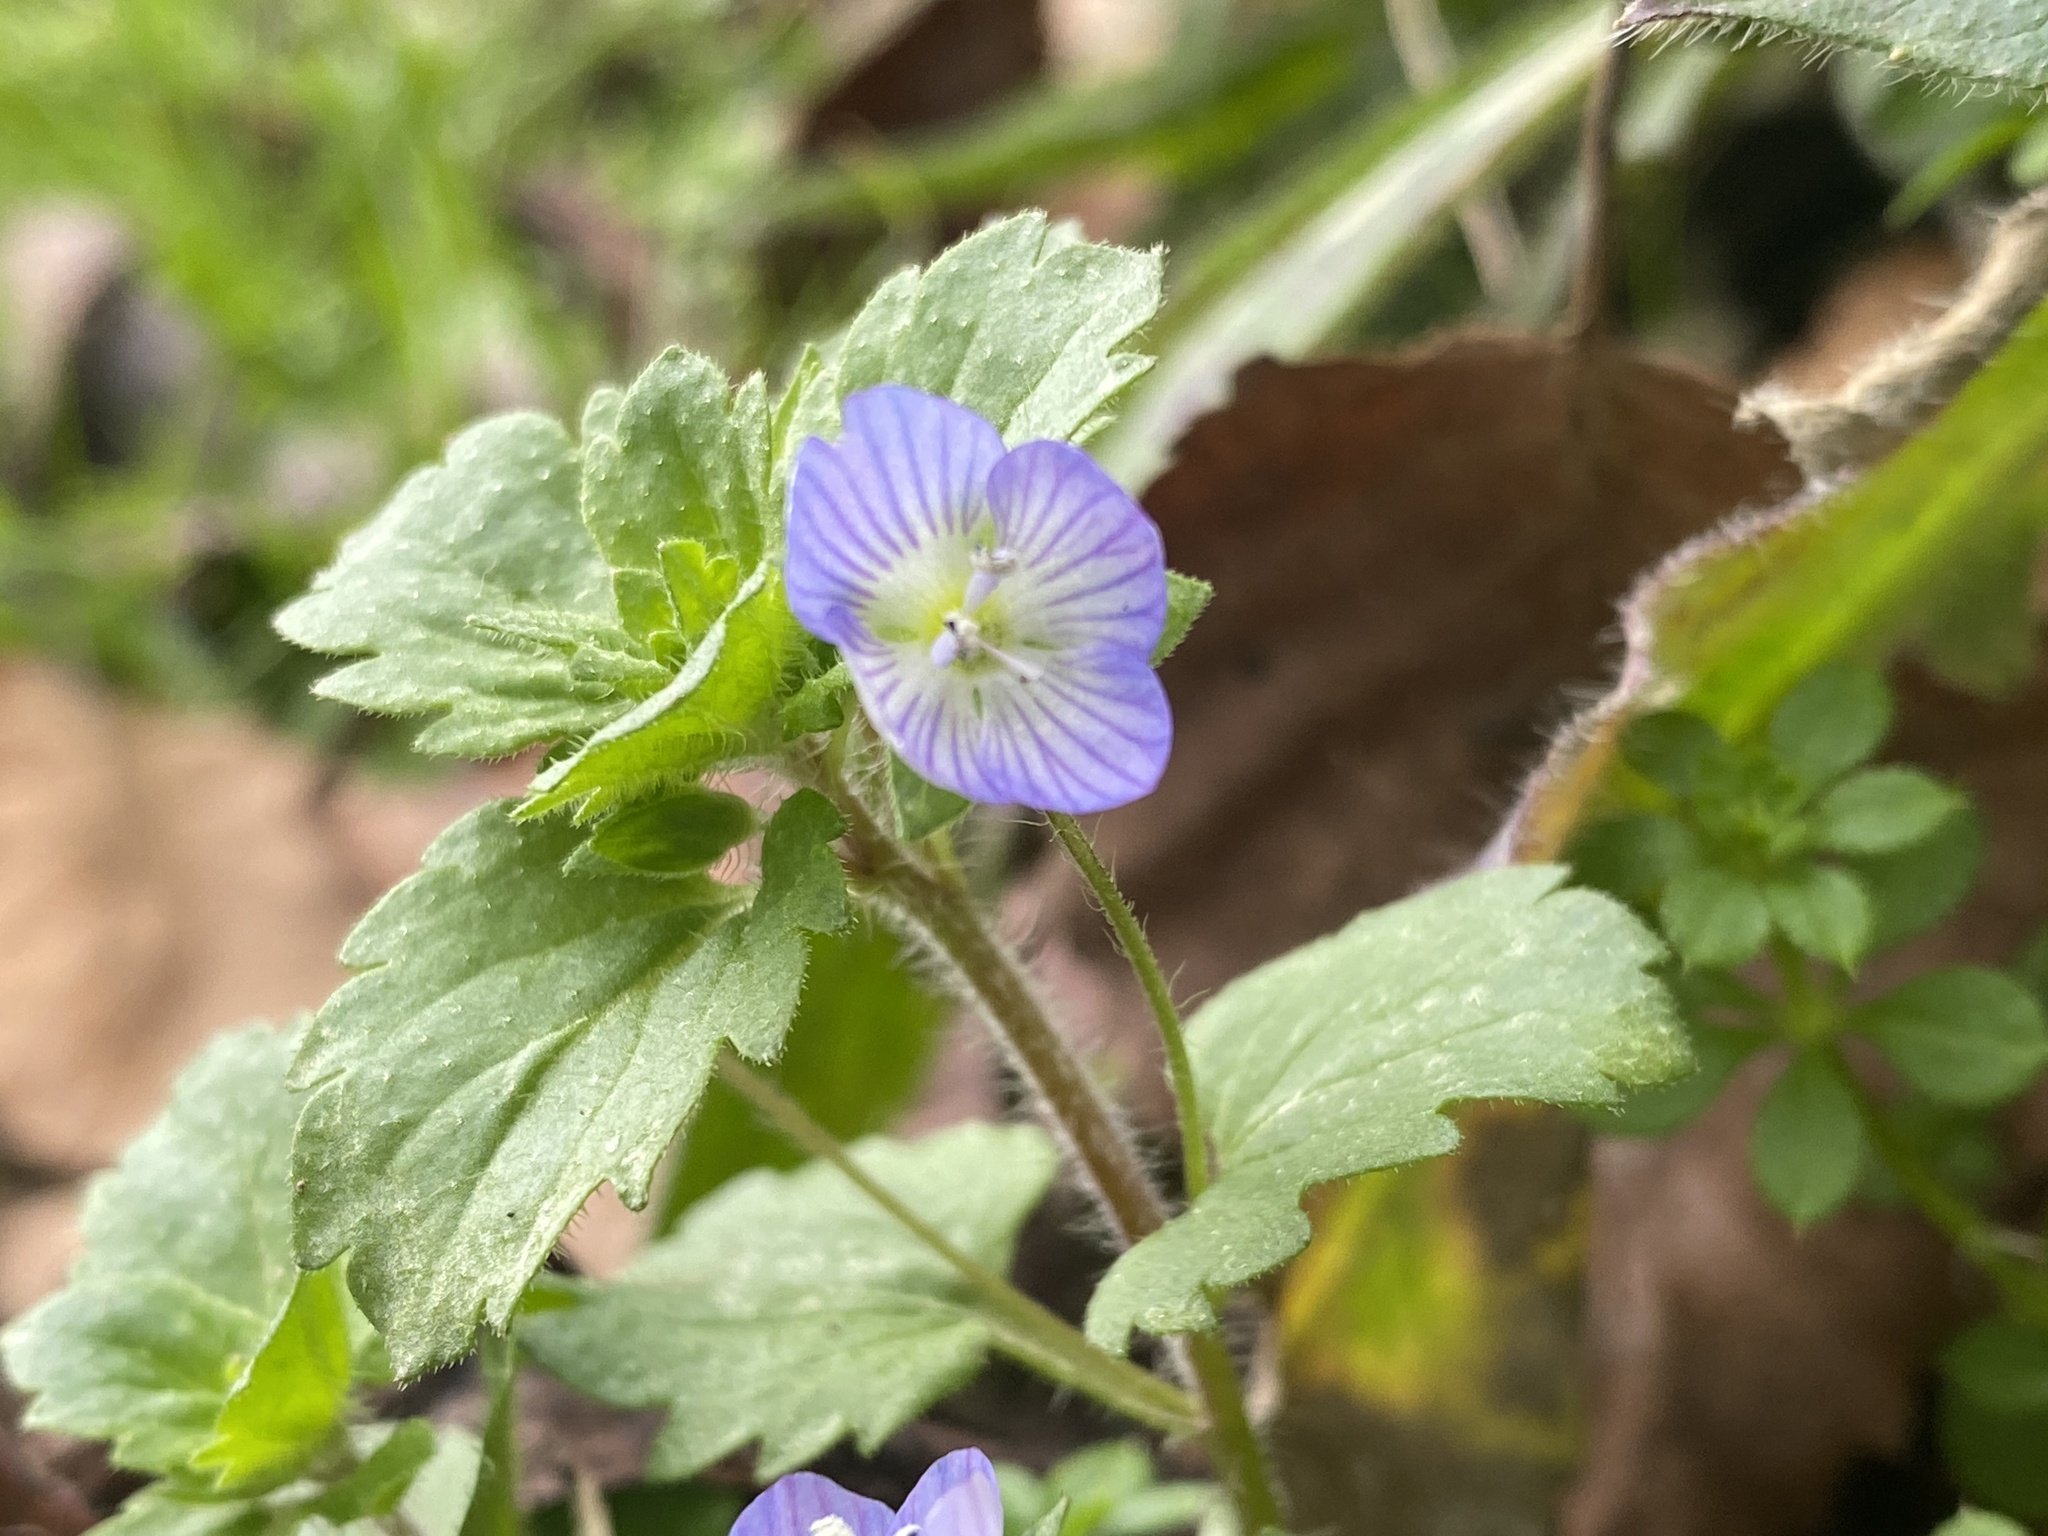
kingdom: Plantae
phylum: Tracheophyta
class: Magnoliopsida
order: Lamiales
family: Plantaginaceae
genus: Veronica
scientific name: Veronica persica
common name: Common field-speedwell
